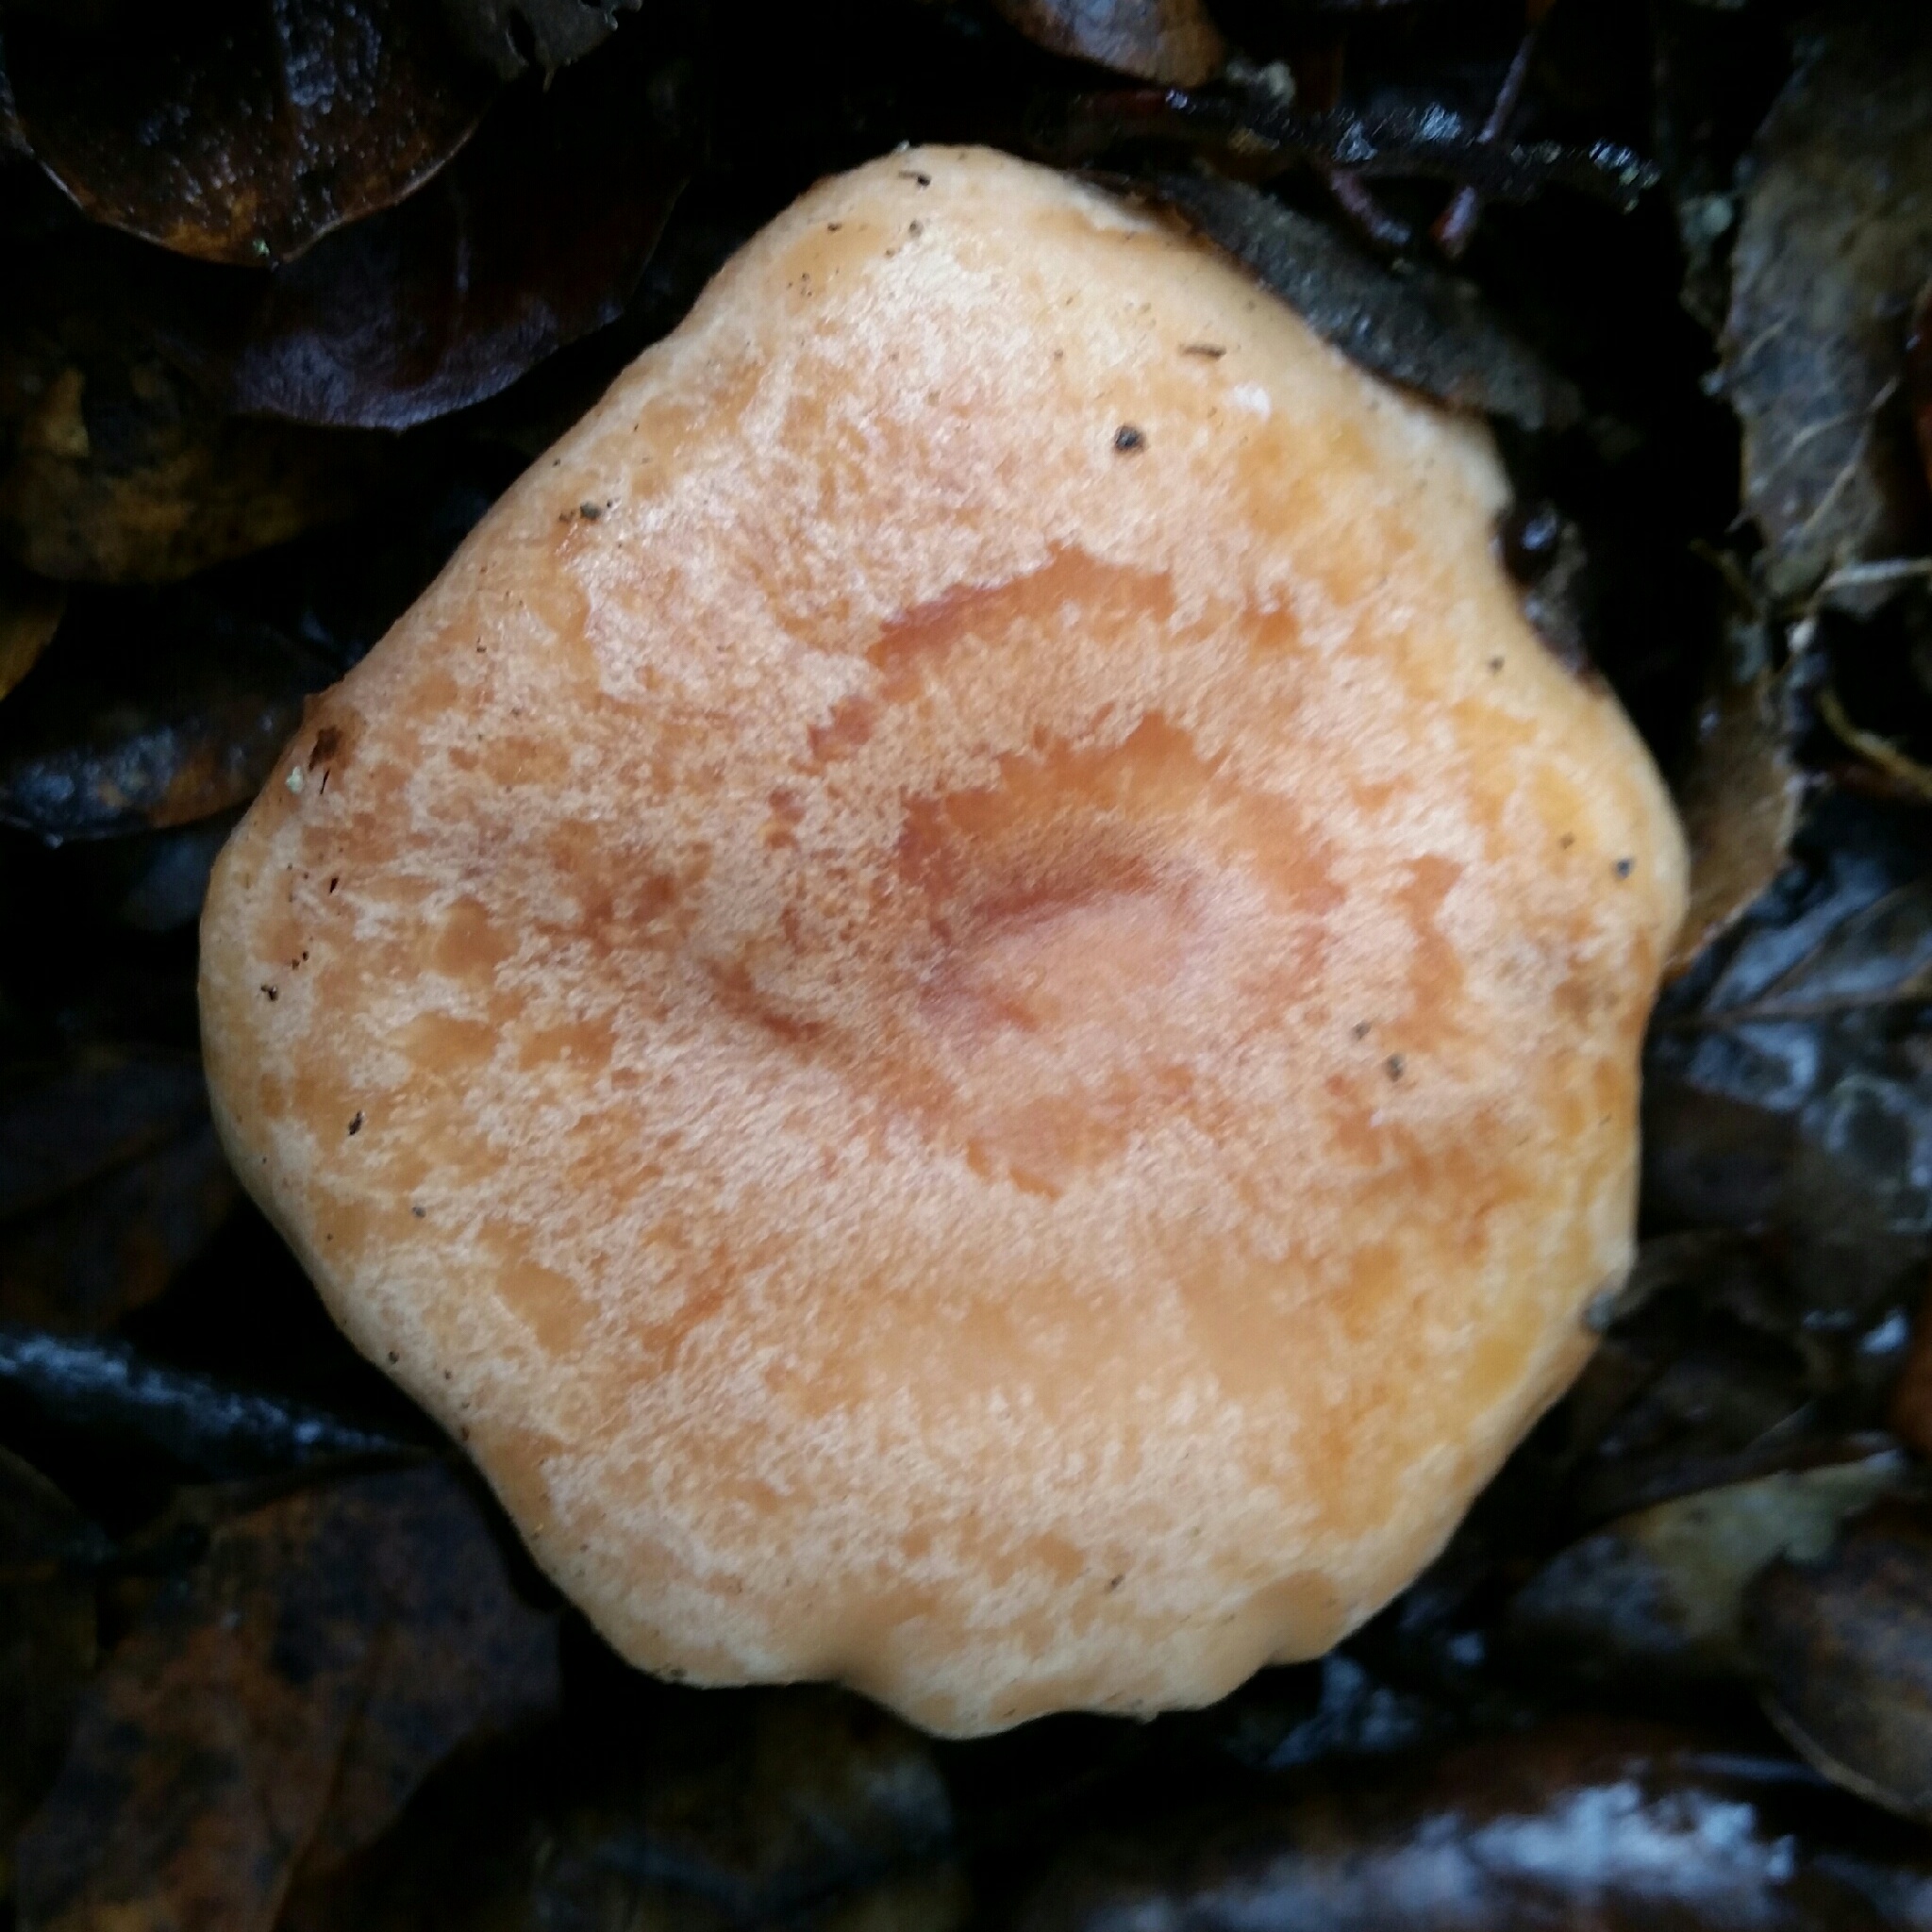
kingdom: Fungi
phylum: Basidiomycota
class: Agaricomycetes
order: Russulales
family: Russulaceae
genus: Lactarius
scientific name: Lactarius xanthogalactus
